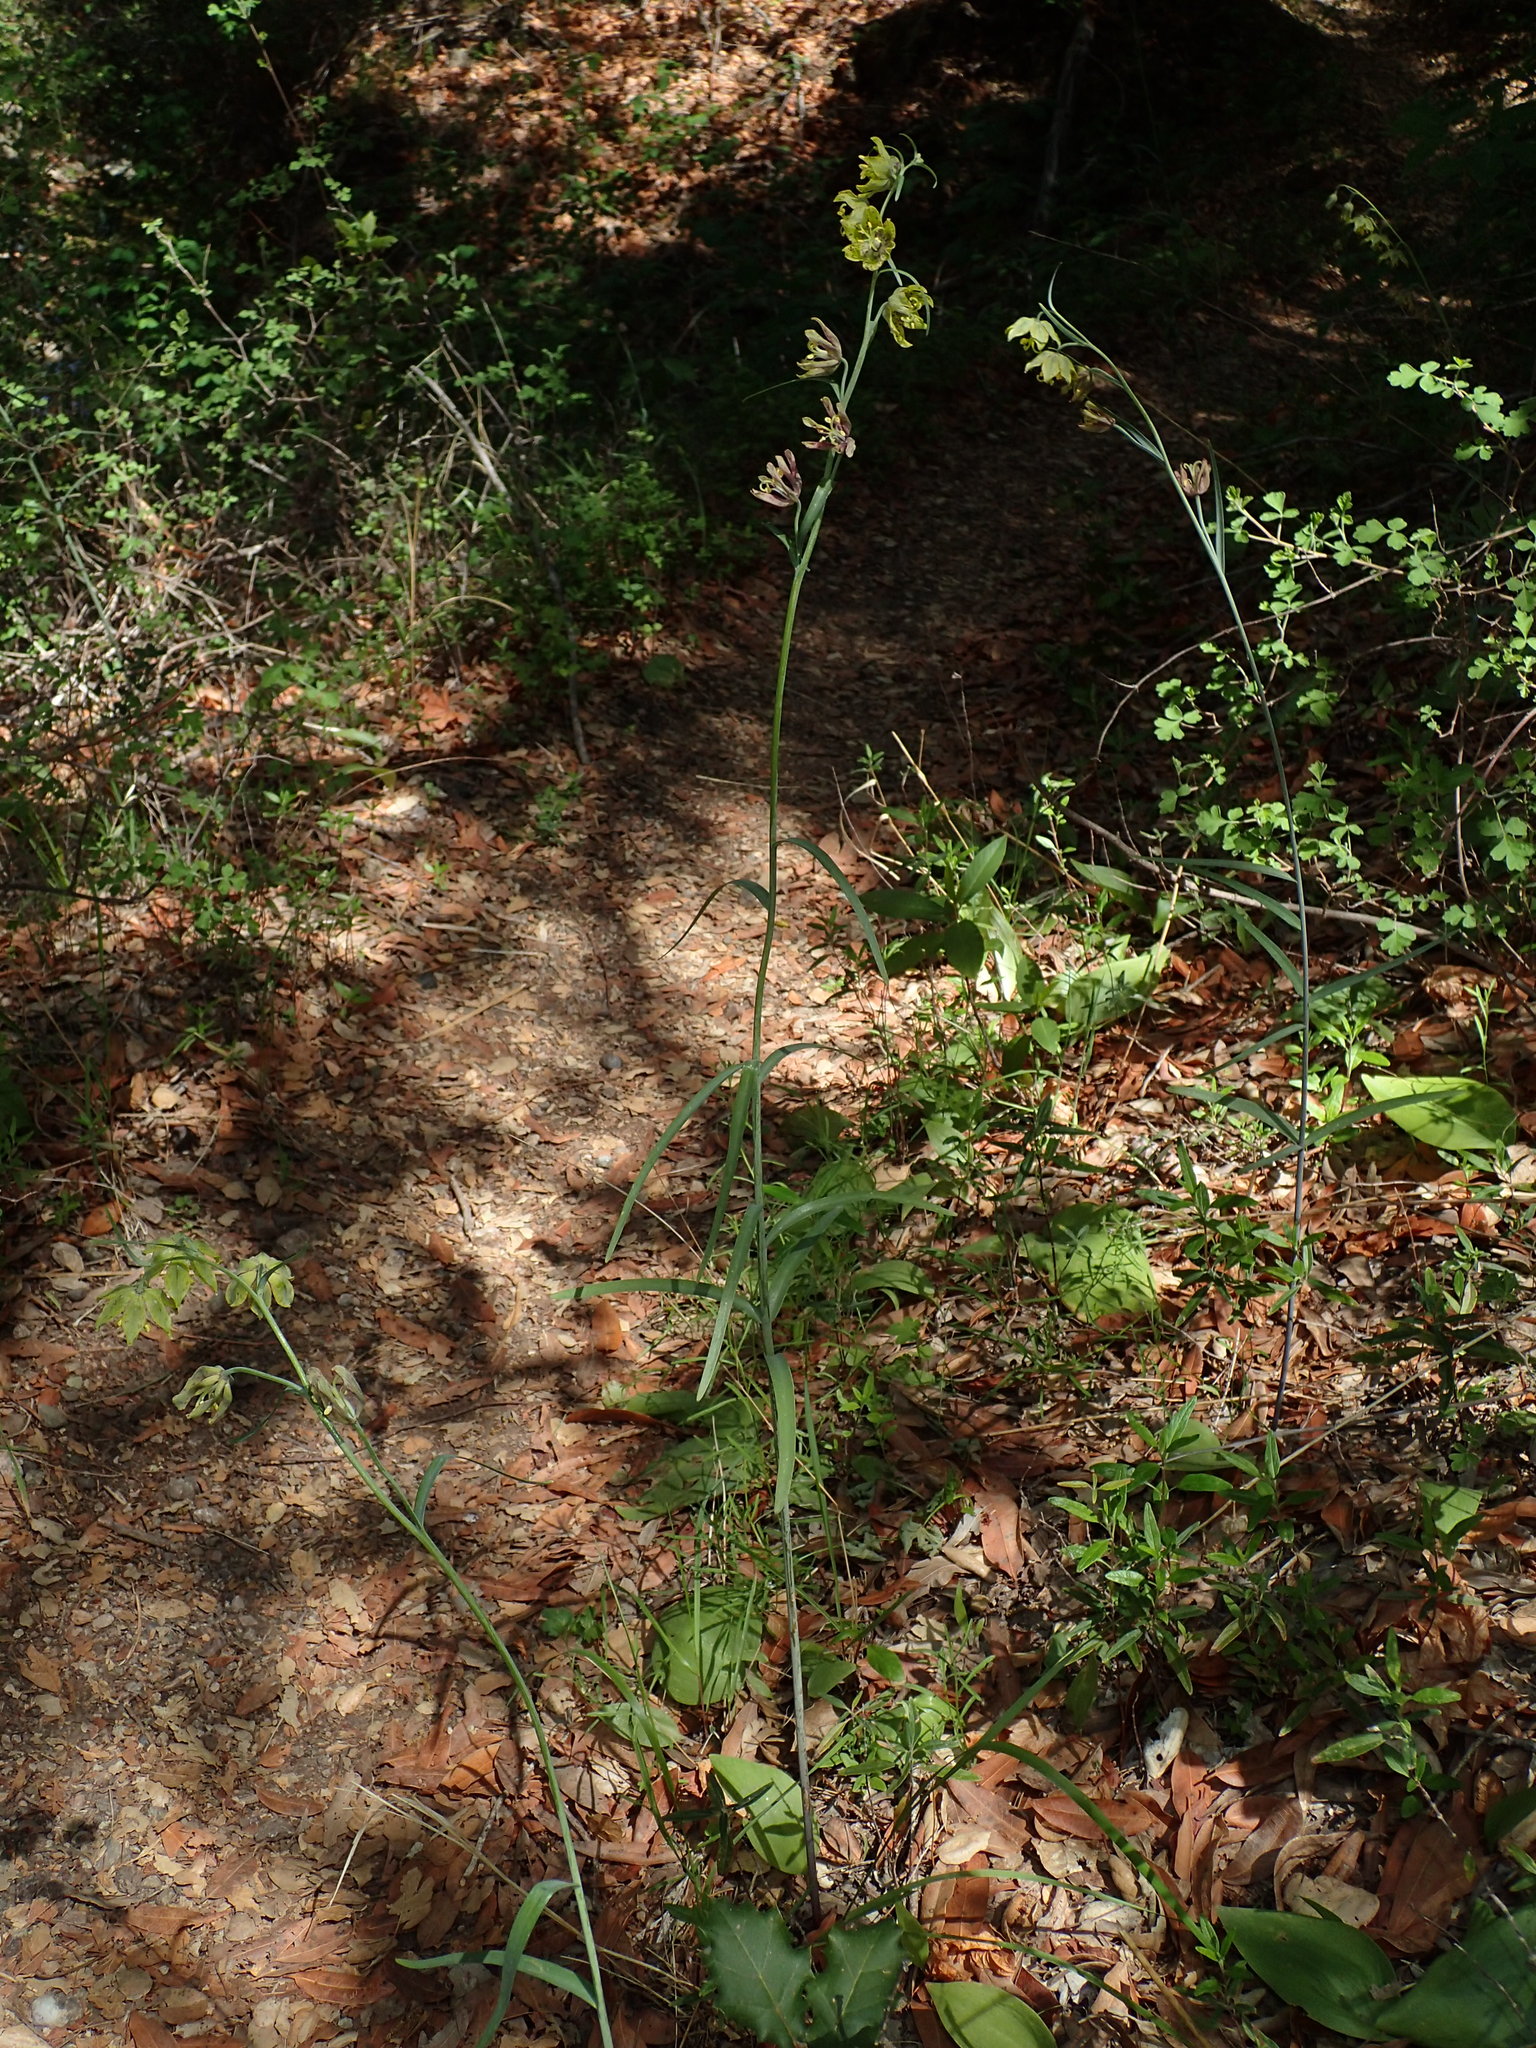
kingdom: Plantae
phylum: Tracheophyta
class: Liliopsida
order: Liliales
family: Liliaceae
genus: Fritillaria
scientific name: Fritillaria ojaiensis
